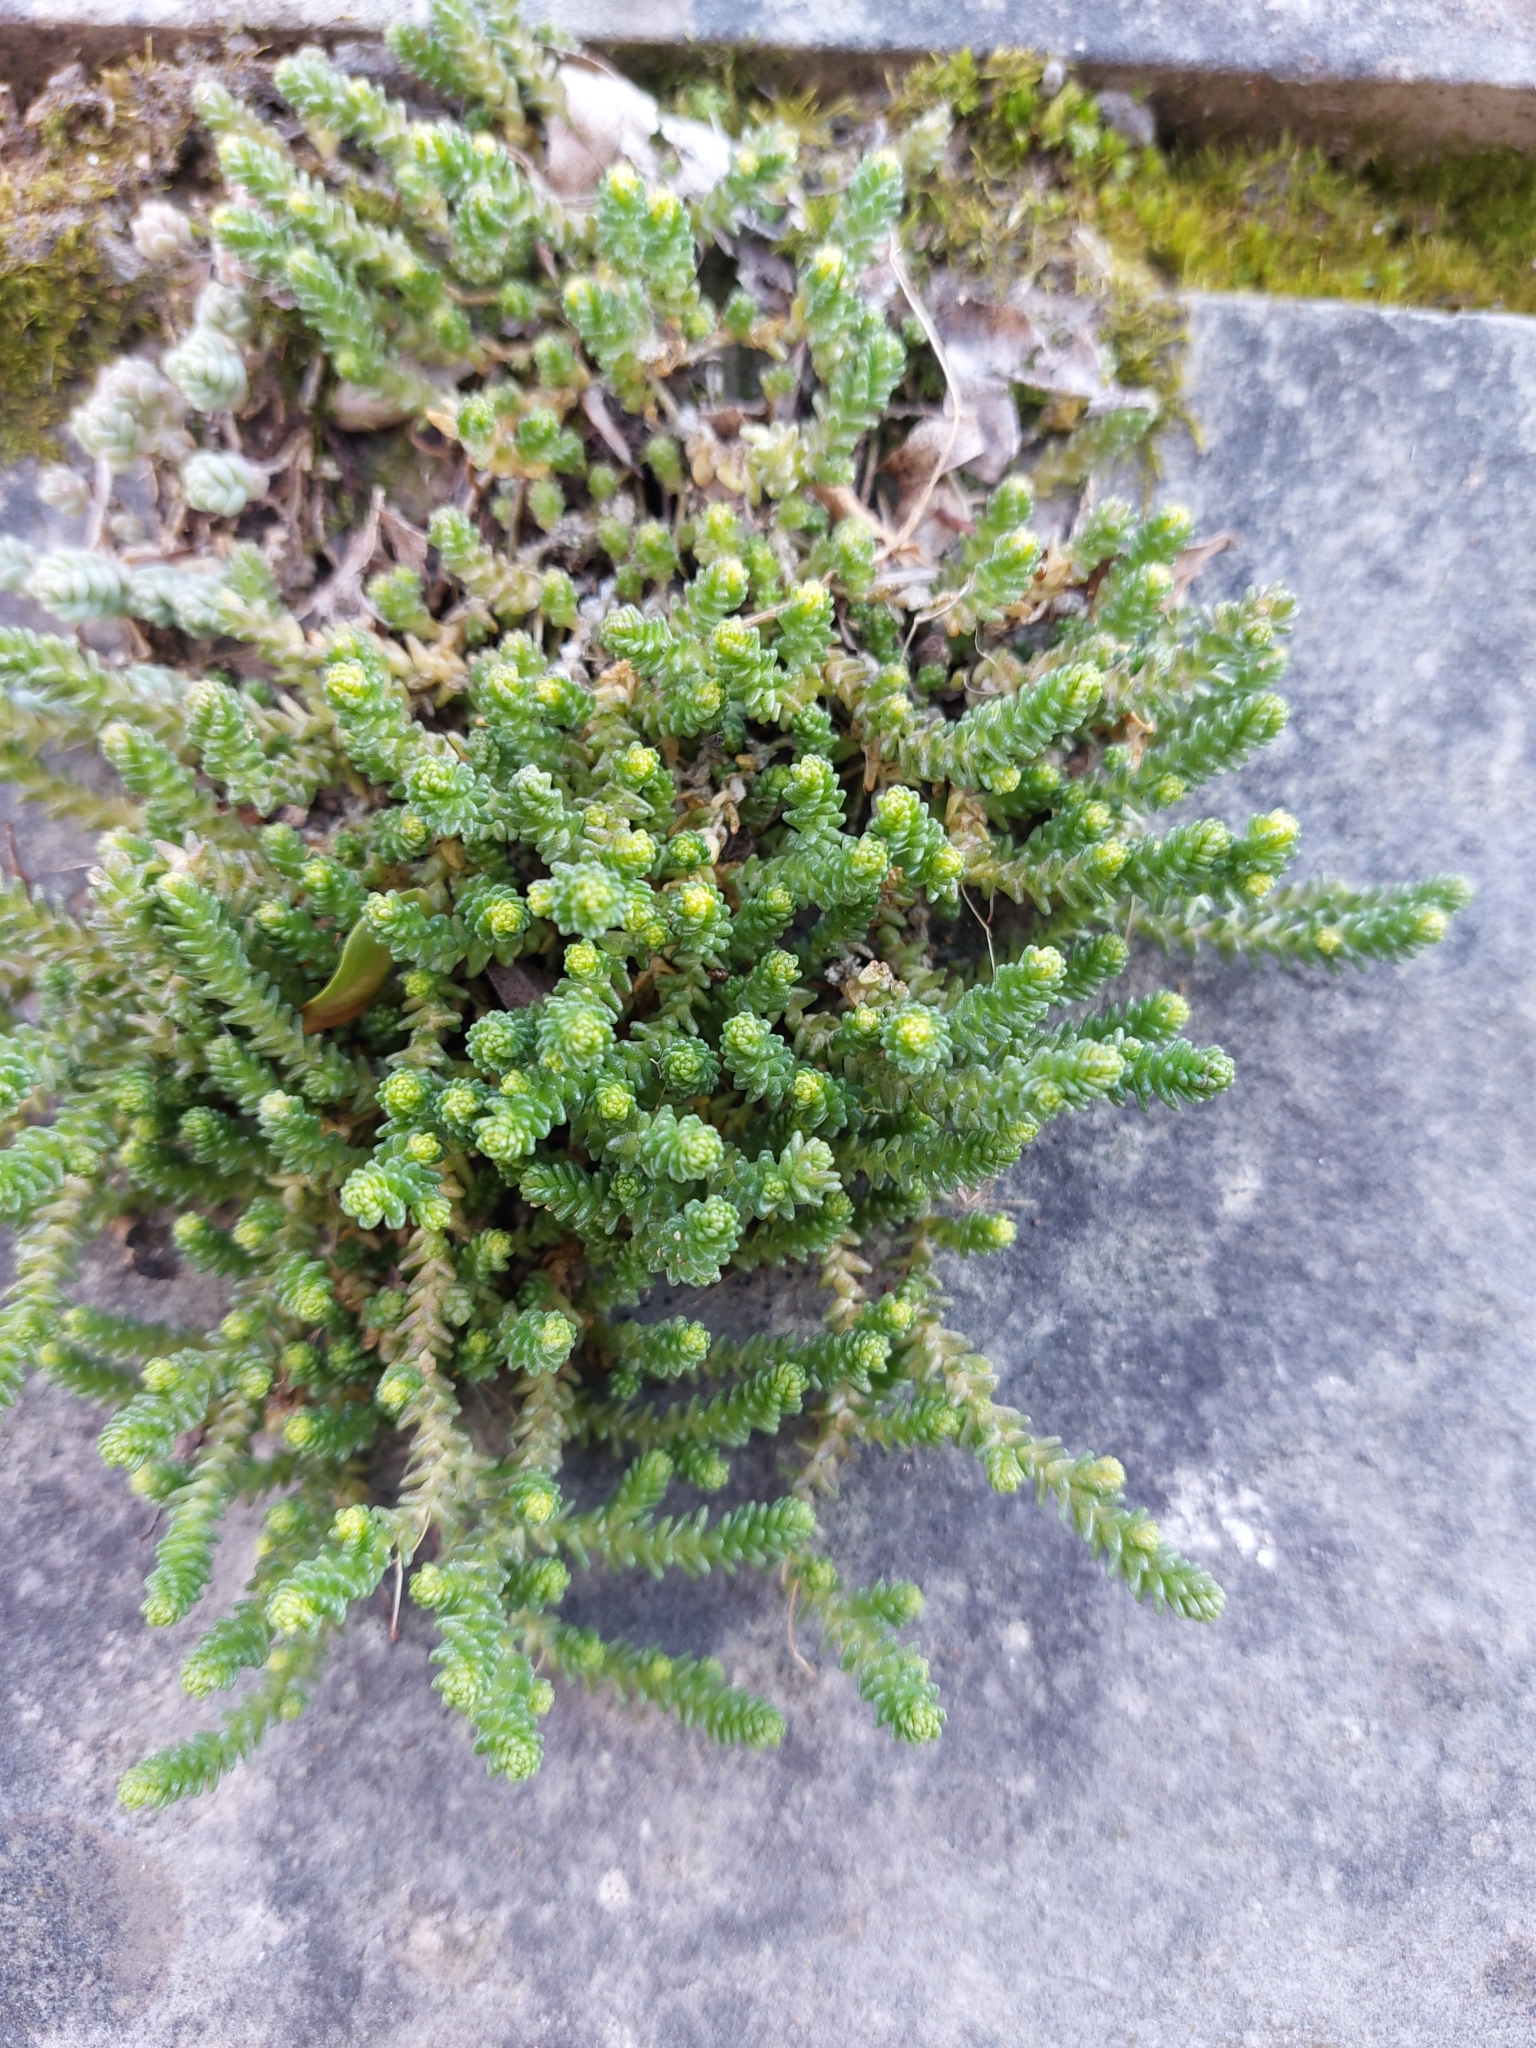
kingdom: Plantae
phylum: Tracheophyta
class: Magnoliopsida
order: Saxifragales
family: Crassulaceae
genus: Sedum
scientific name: Sedum acre
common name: Biting stonecrop
